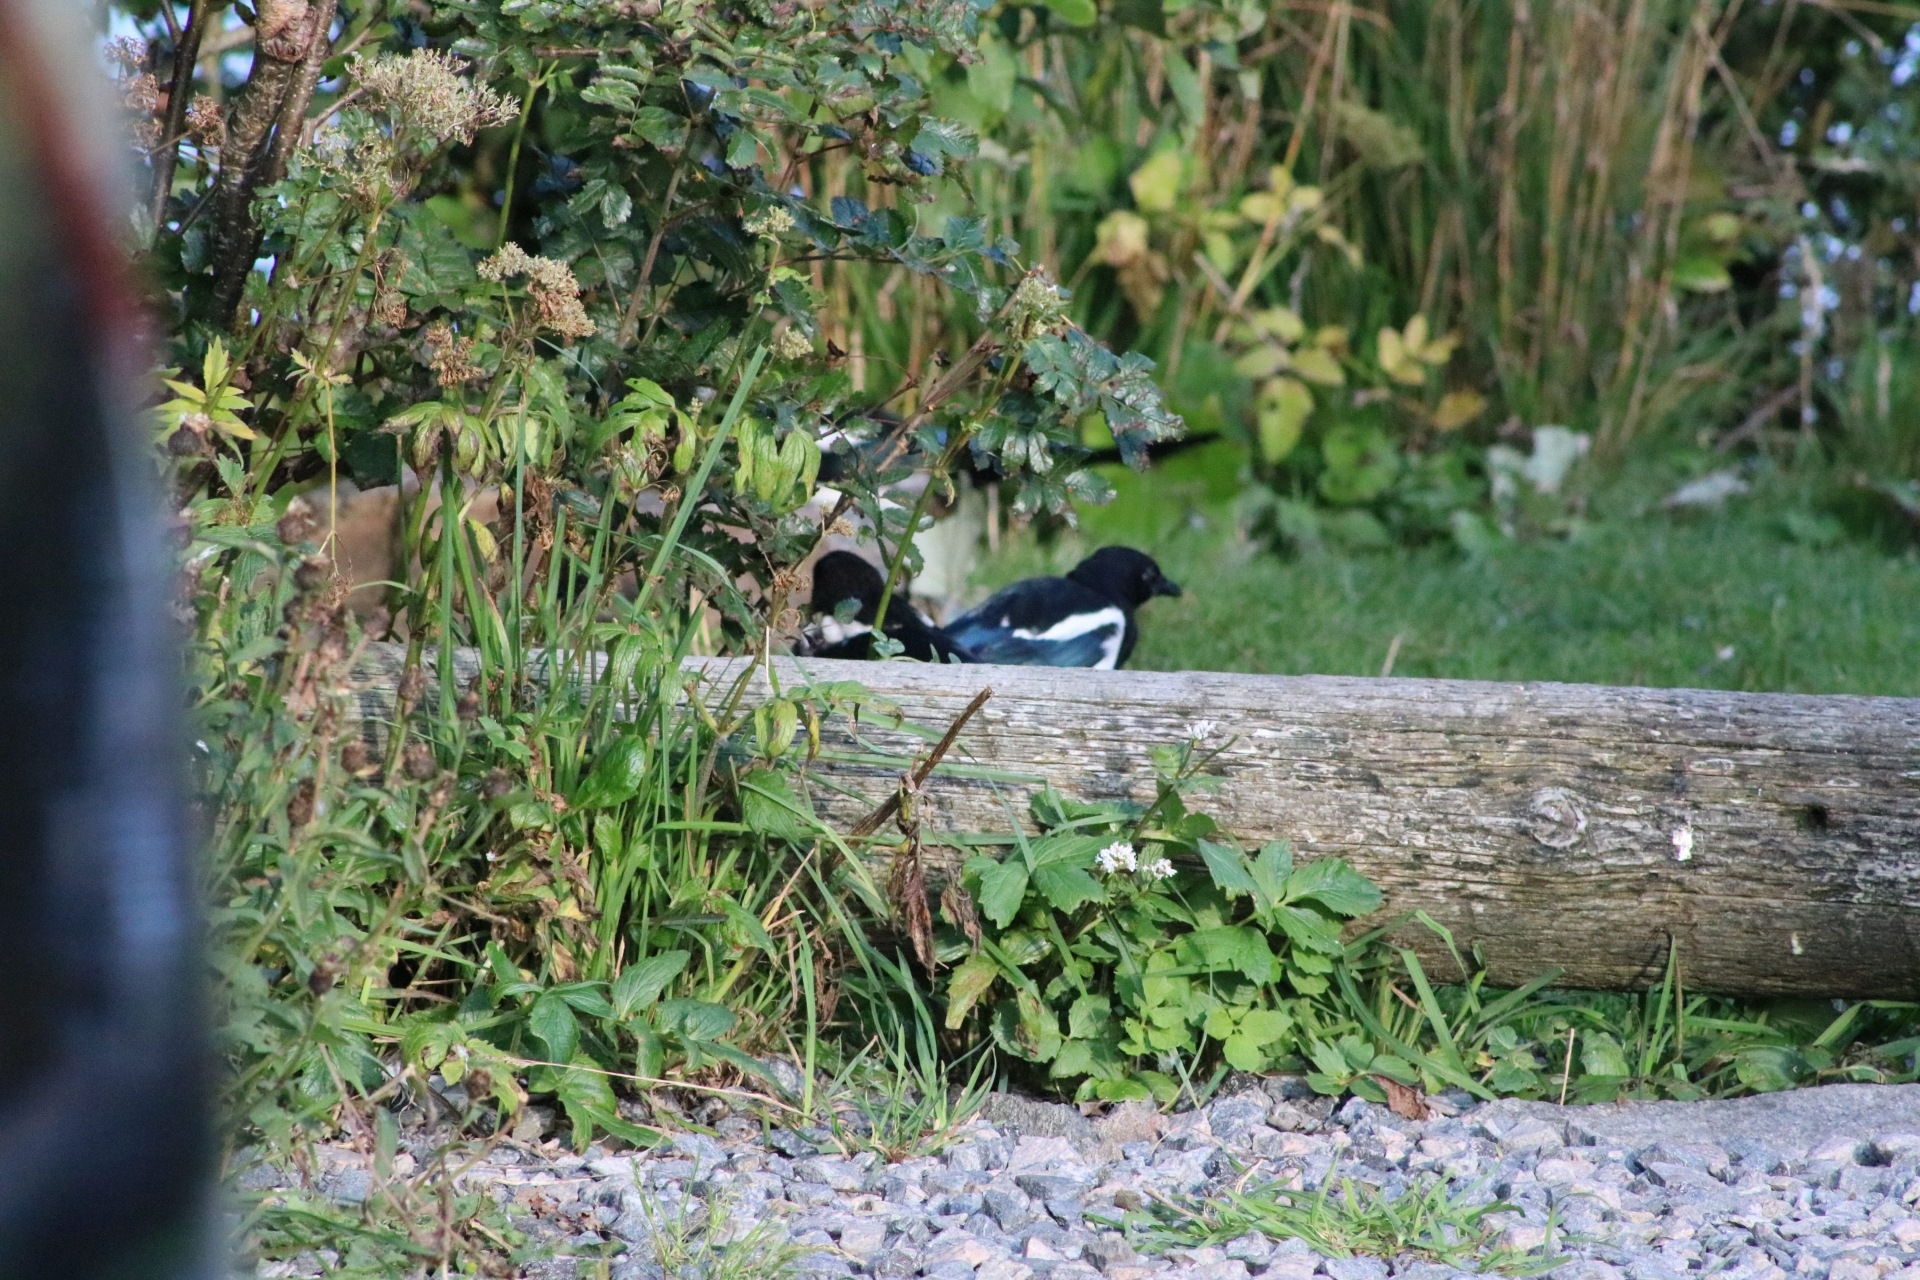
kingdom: Animalia
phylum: Chordata
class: Aves
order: Passeriformes
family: Corvidae
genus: Pica
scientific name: Pica pica
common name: Eurasian magpie
